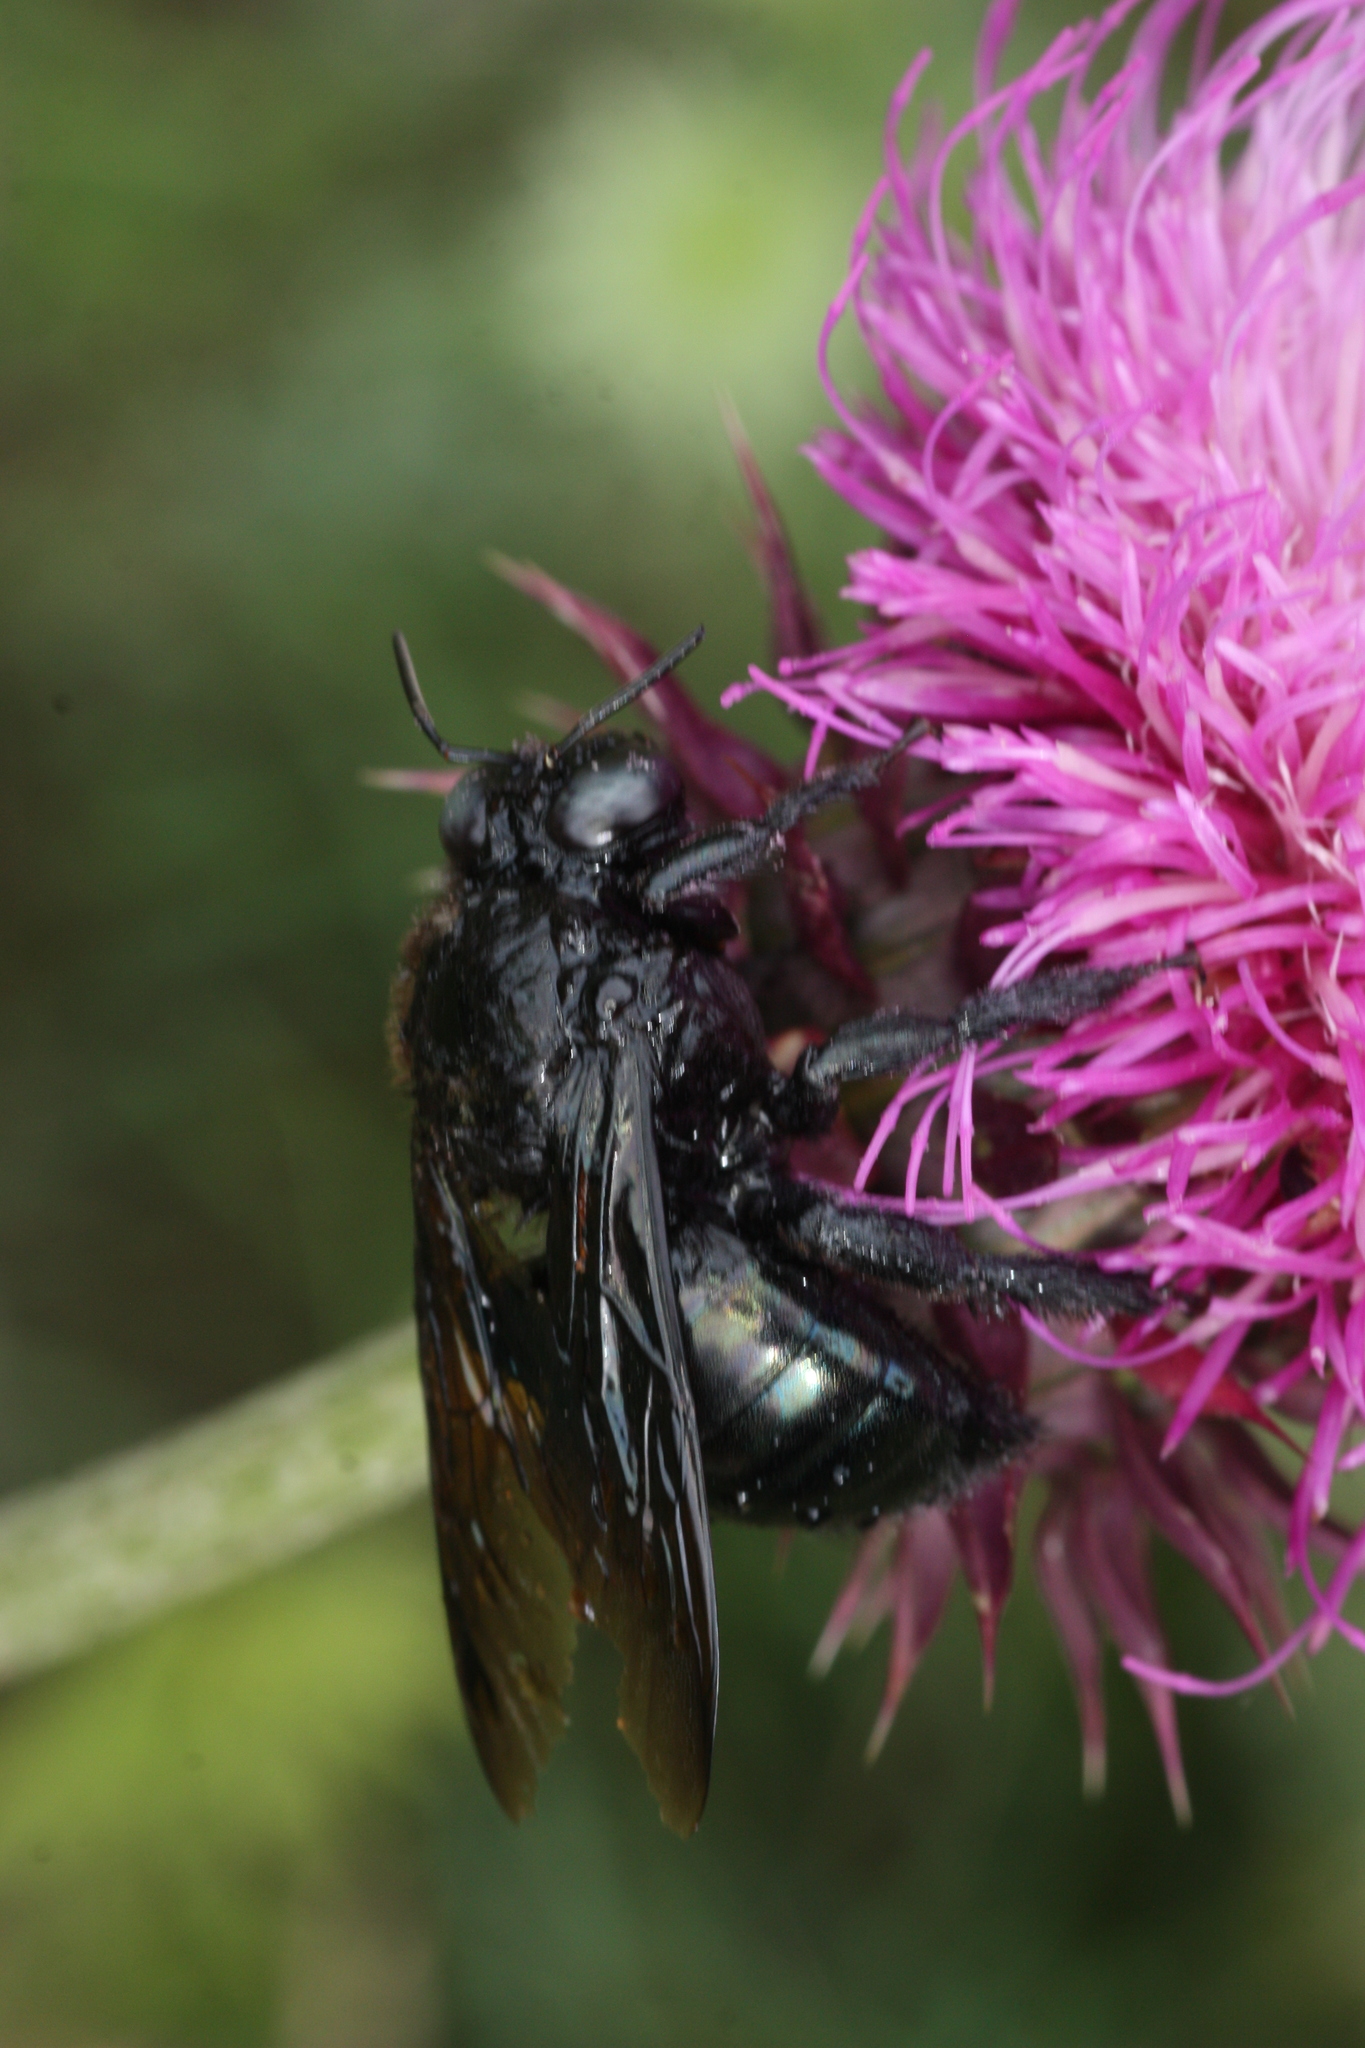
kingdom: Animalia
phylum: Arthropoda
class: Insecta
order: Hymenoptera
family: Apidae
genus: Xylocopa
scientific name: Xylocopa californica
